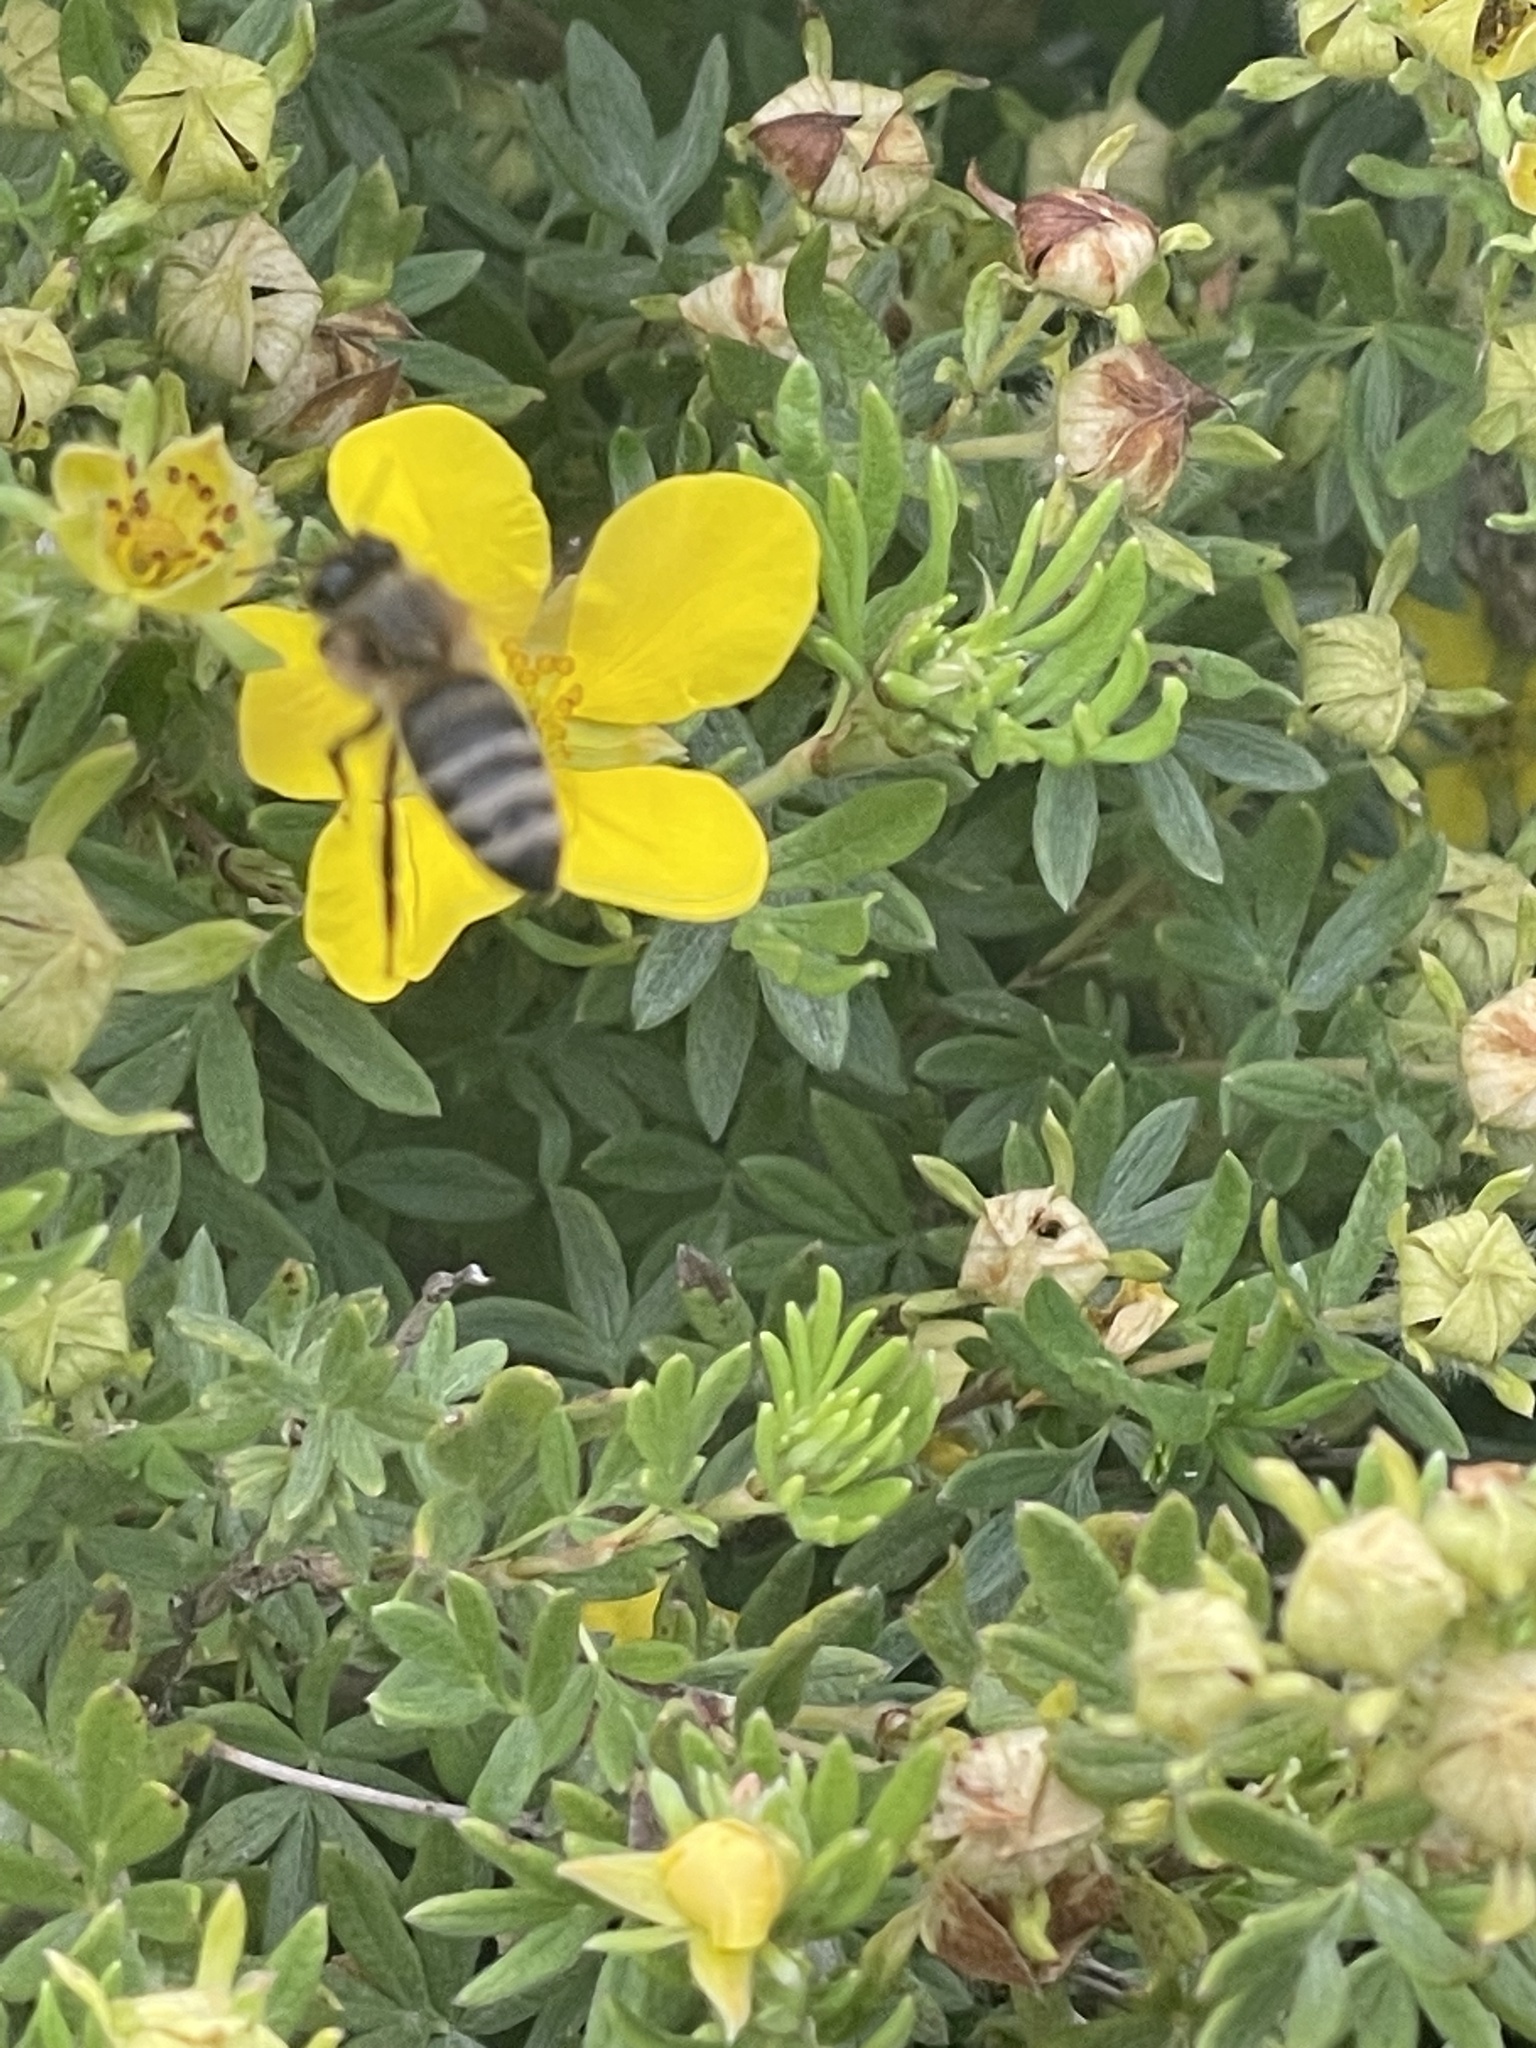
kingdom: Animalia
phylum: Arthropoda
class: Insecta
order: Hymenoptera
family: Apidae
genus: Apis
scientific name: Apis mellifera
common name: Honey bee
